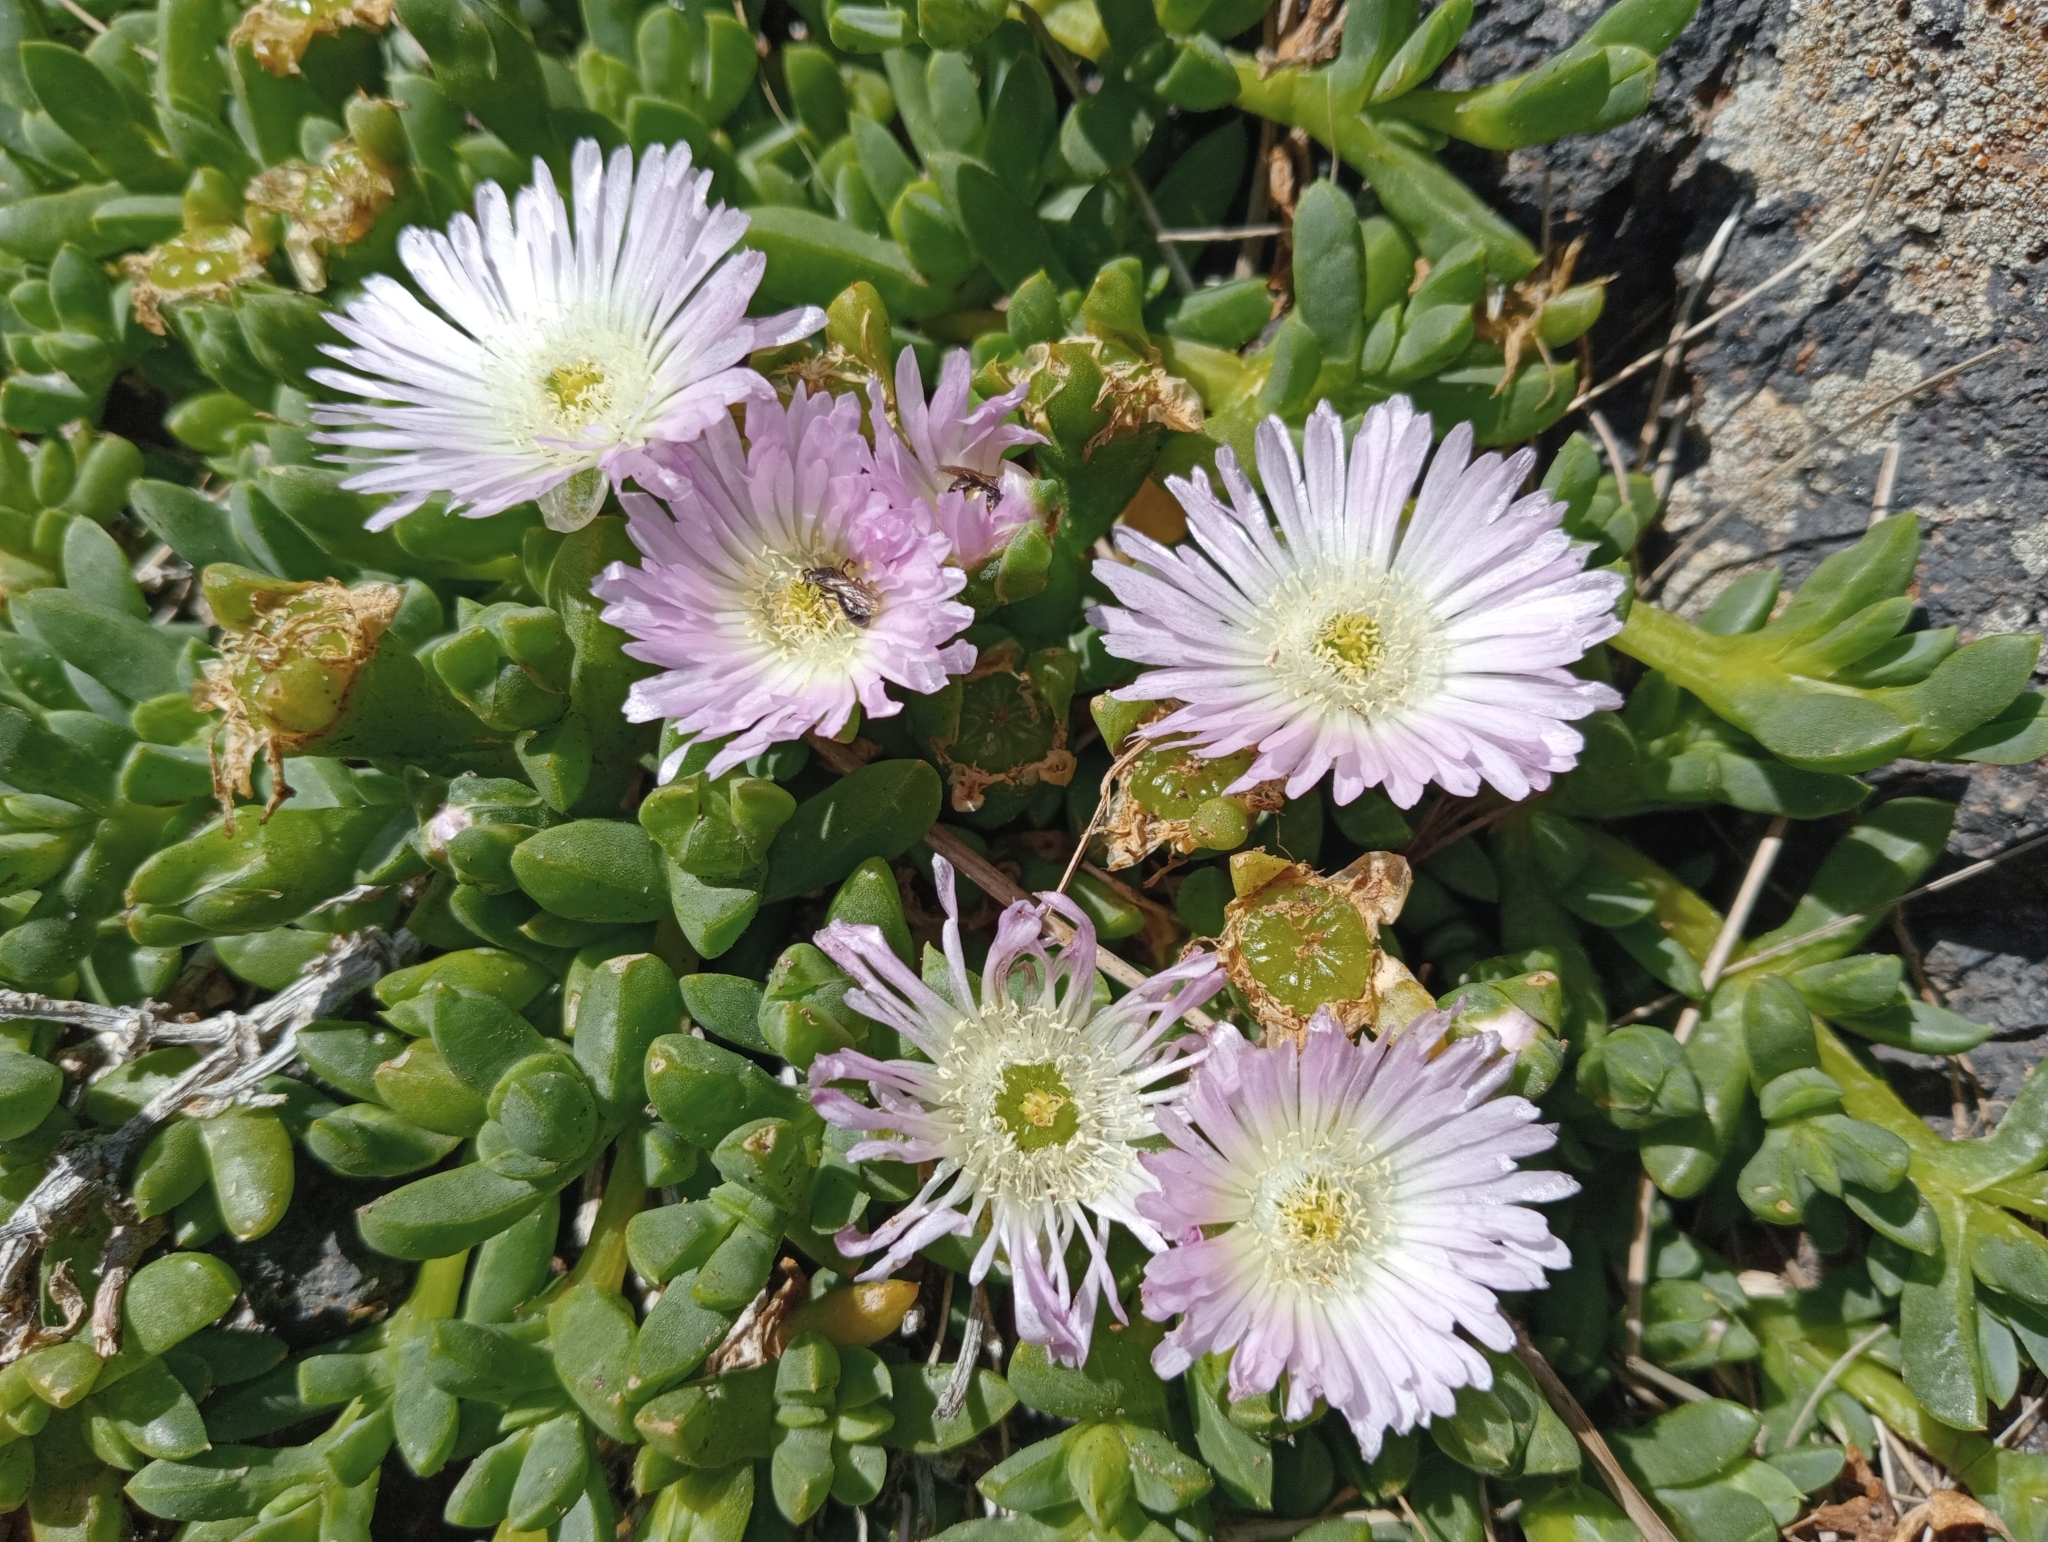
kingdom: Plantae
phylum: Tracheophyta
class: Magnoliopsida
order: Caryophyllales
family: Aizoaceae
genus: Disphyma
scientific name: Disphyma australe
